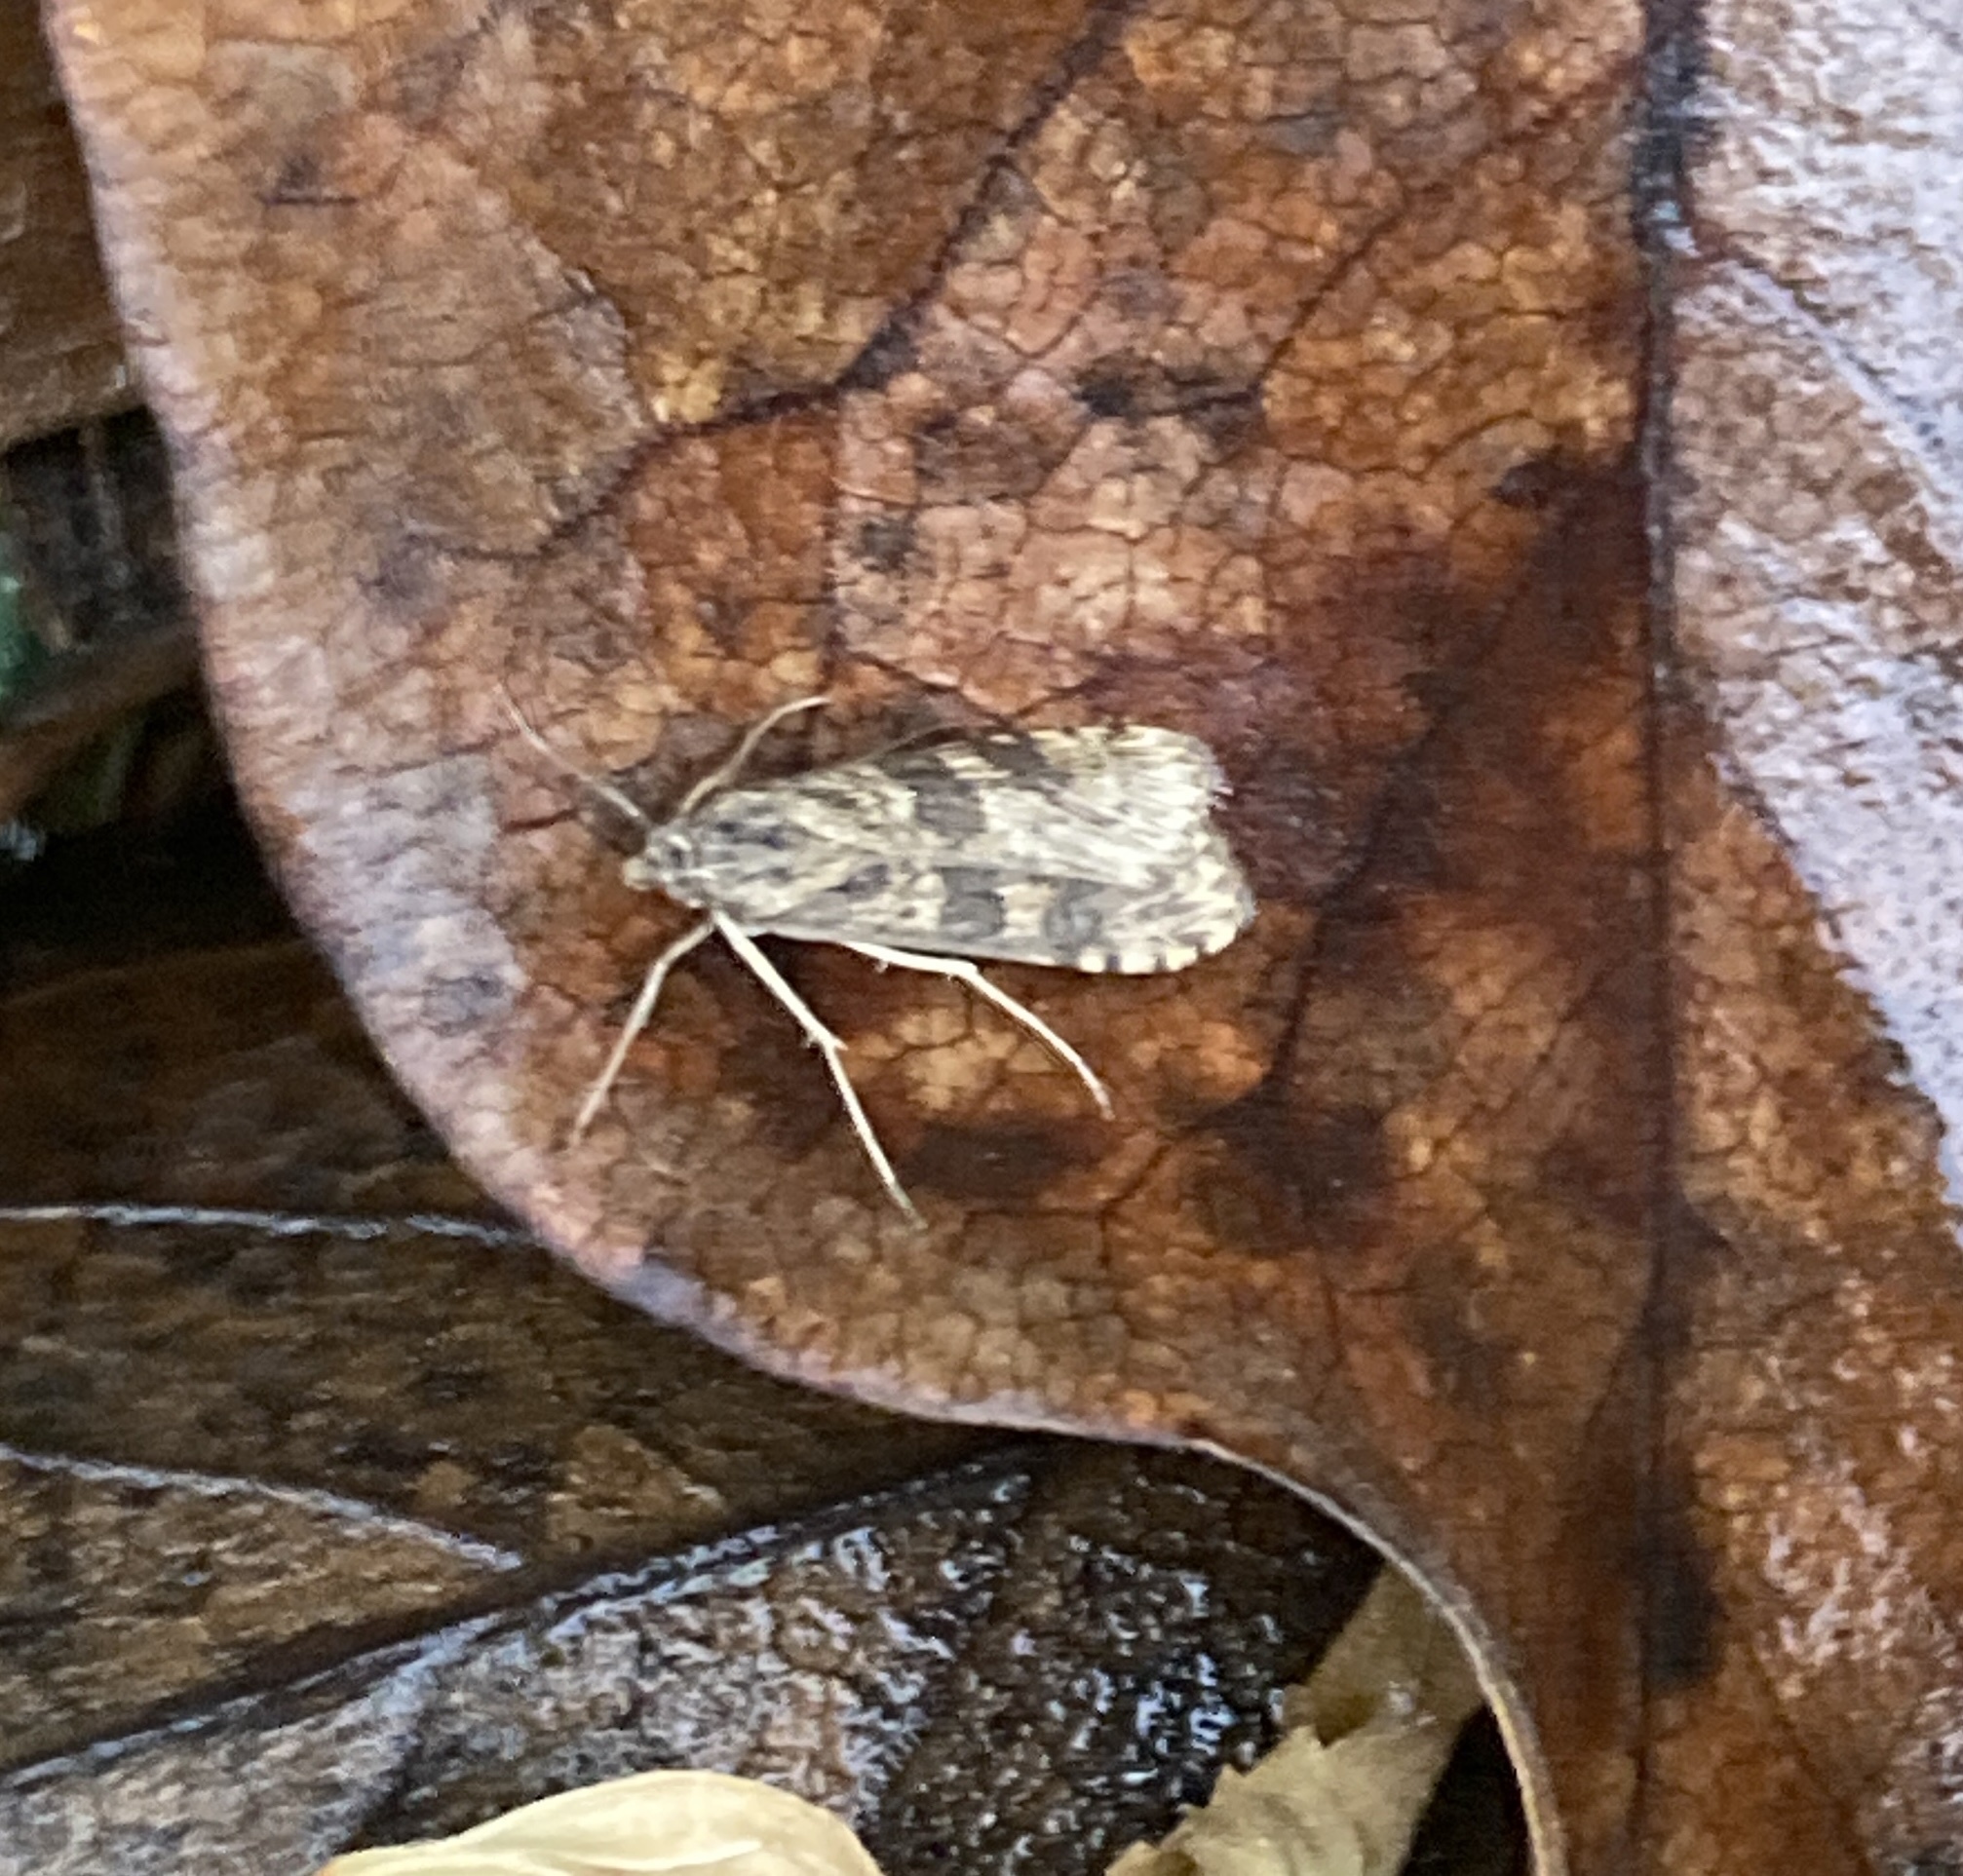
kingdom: Animalia
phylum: Arthropoda
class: Insecta
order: Lepidoptera
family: Crambidae
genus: Nomophila
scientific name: Nomophila nearctica
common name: American rush veneer
